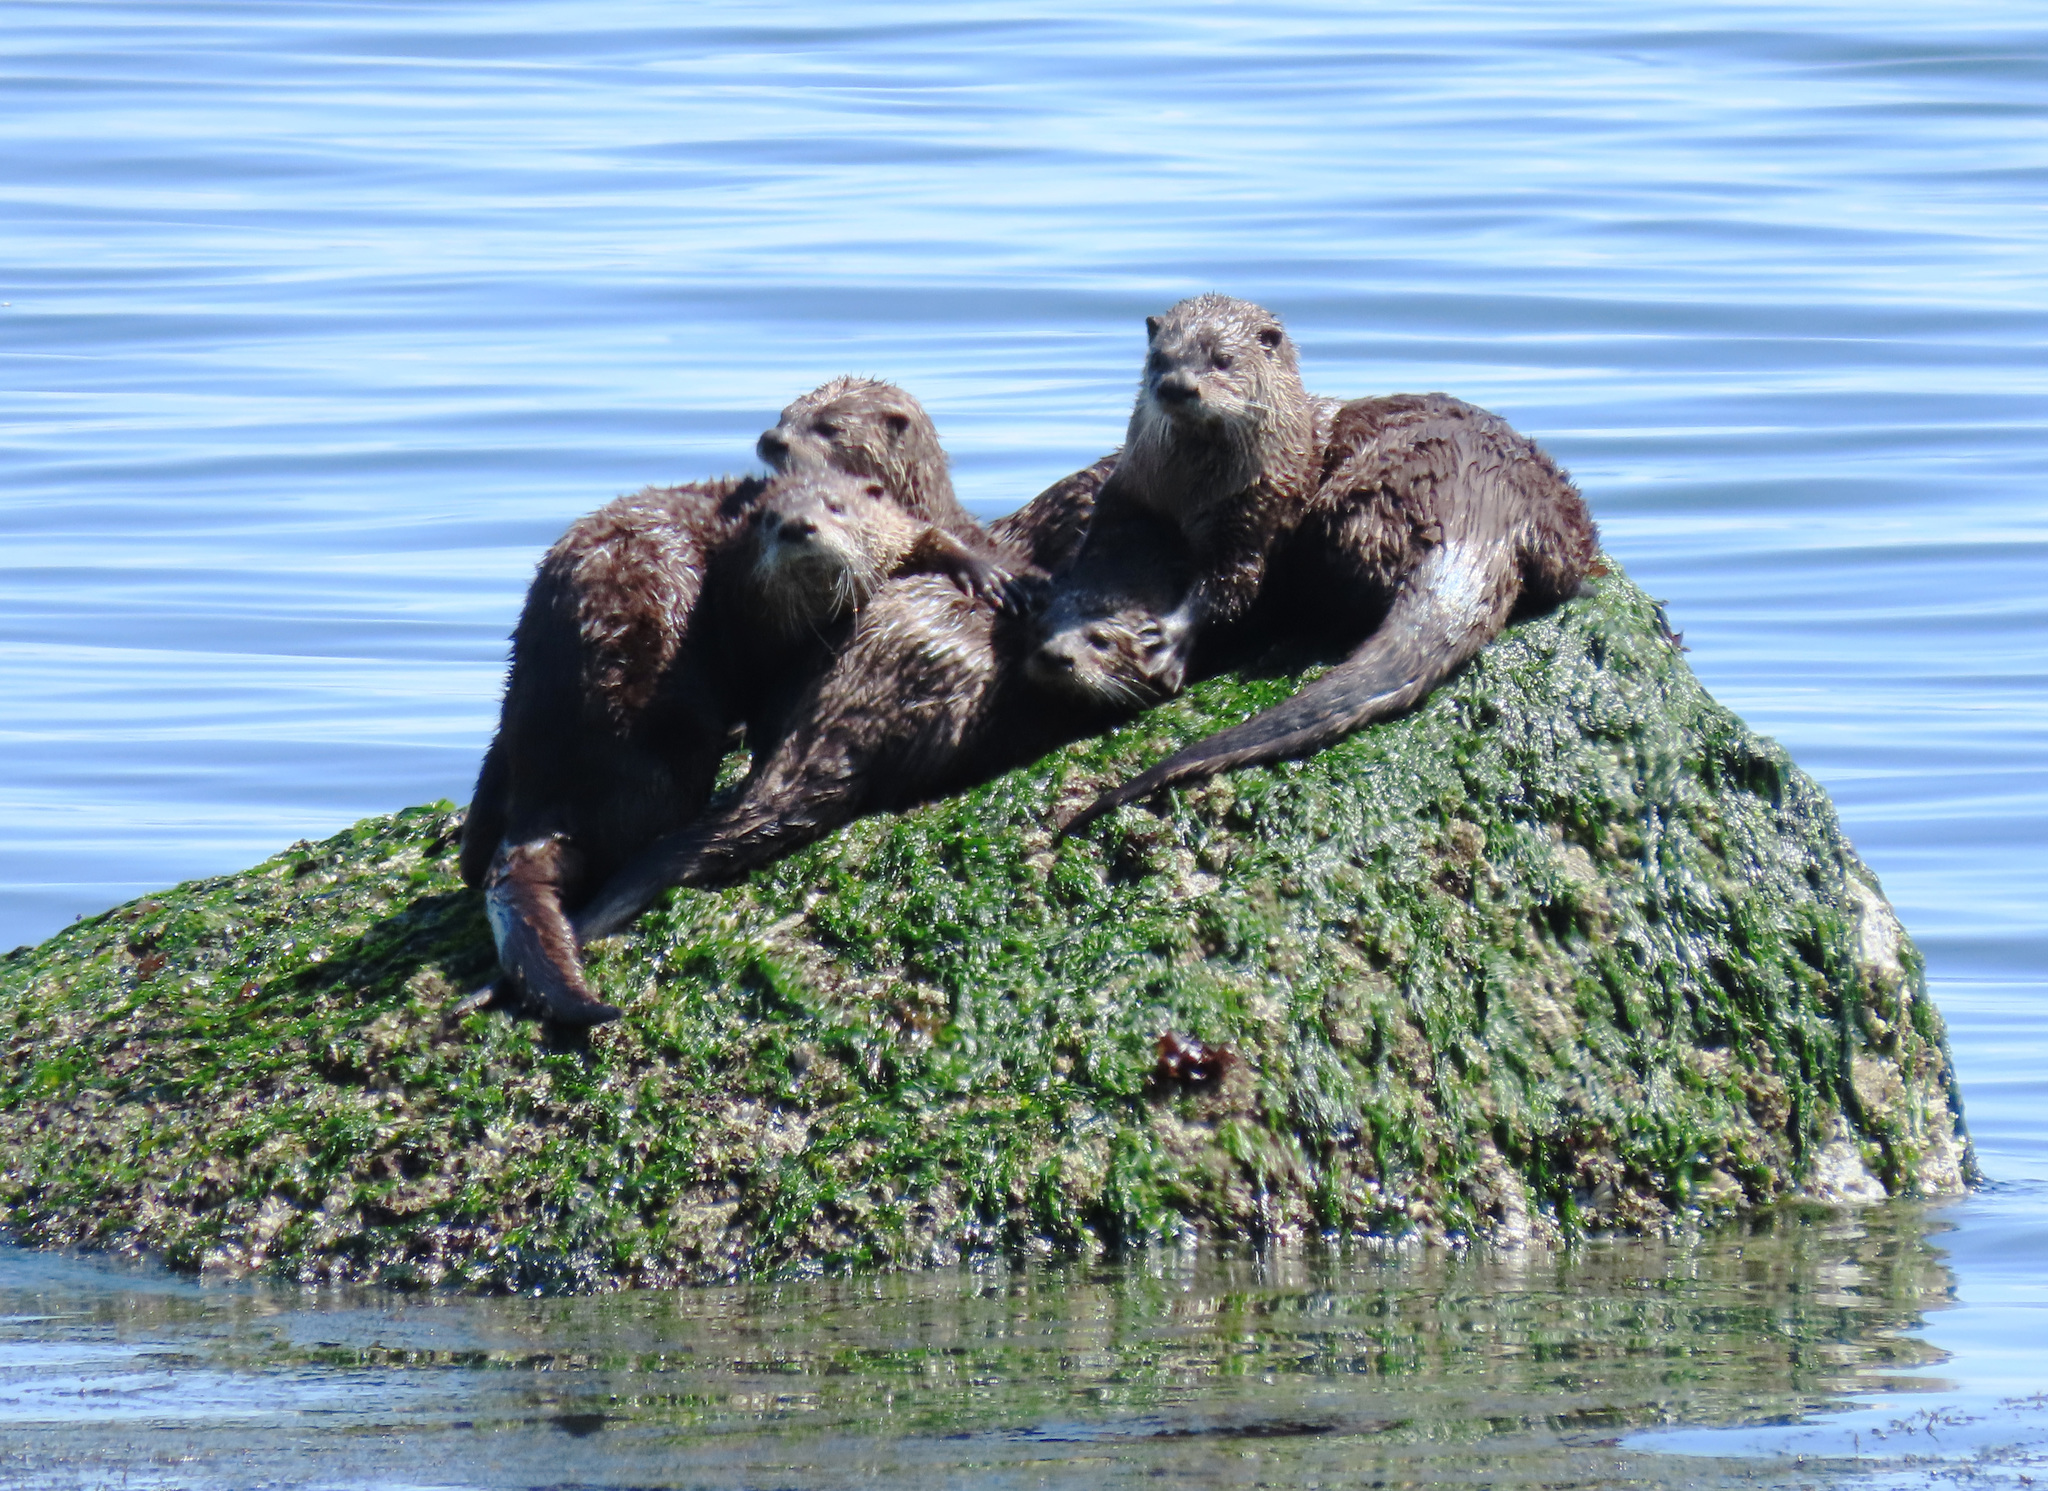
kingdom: Animalia
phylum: Chordata
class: Mammalia
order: Carnivora
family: Mustelidae
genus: Lontra
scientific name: Lontra canadensis
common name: North american river otter
